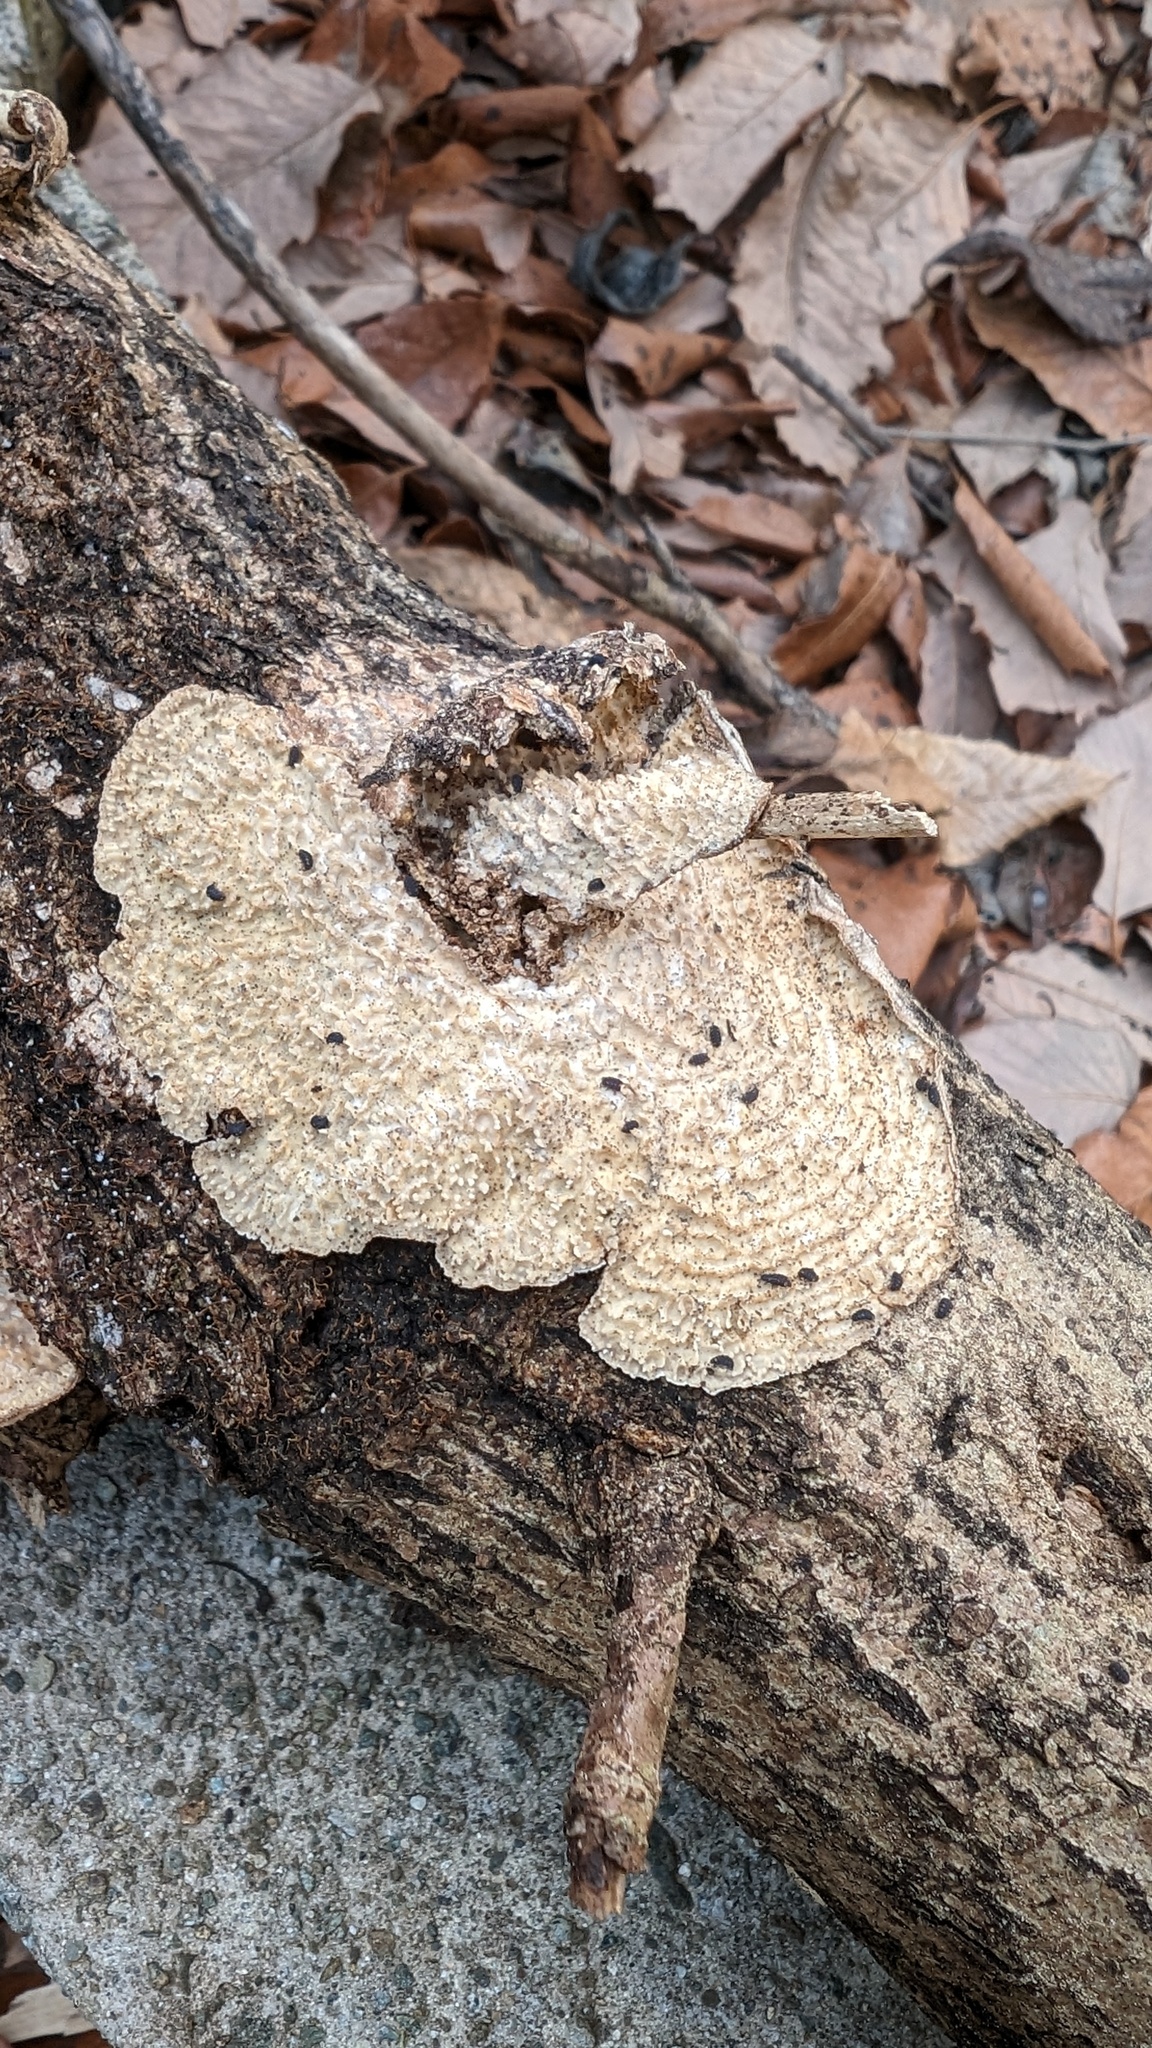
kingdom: Fungi
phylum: Basidiomycota
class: Agaricomycetes
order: Polyporales
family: Polyporaceae
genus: Lopharia
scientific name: Lopharia cinerascens
